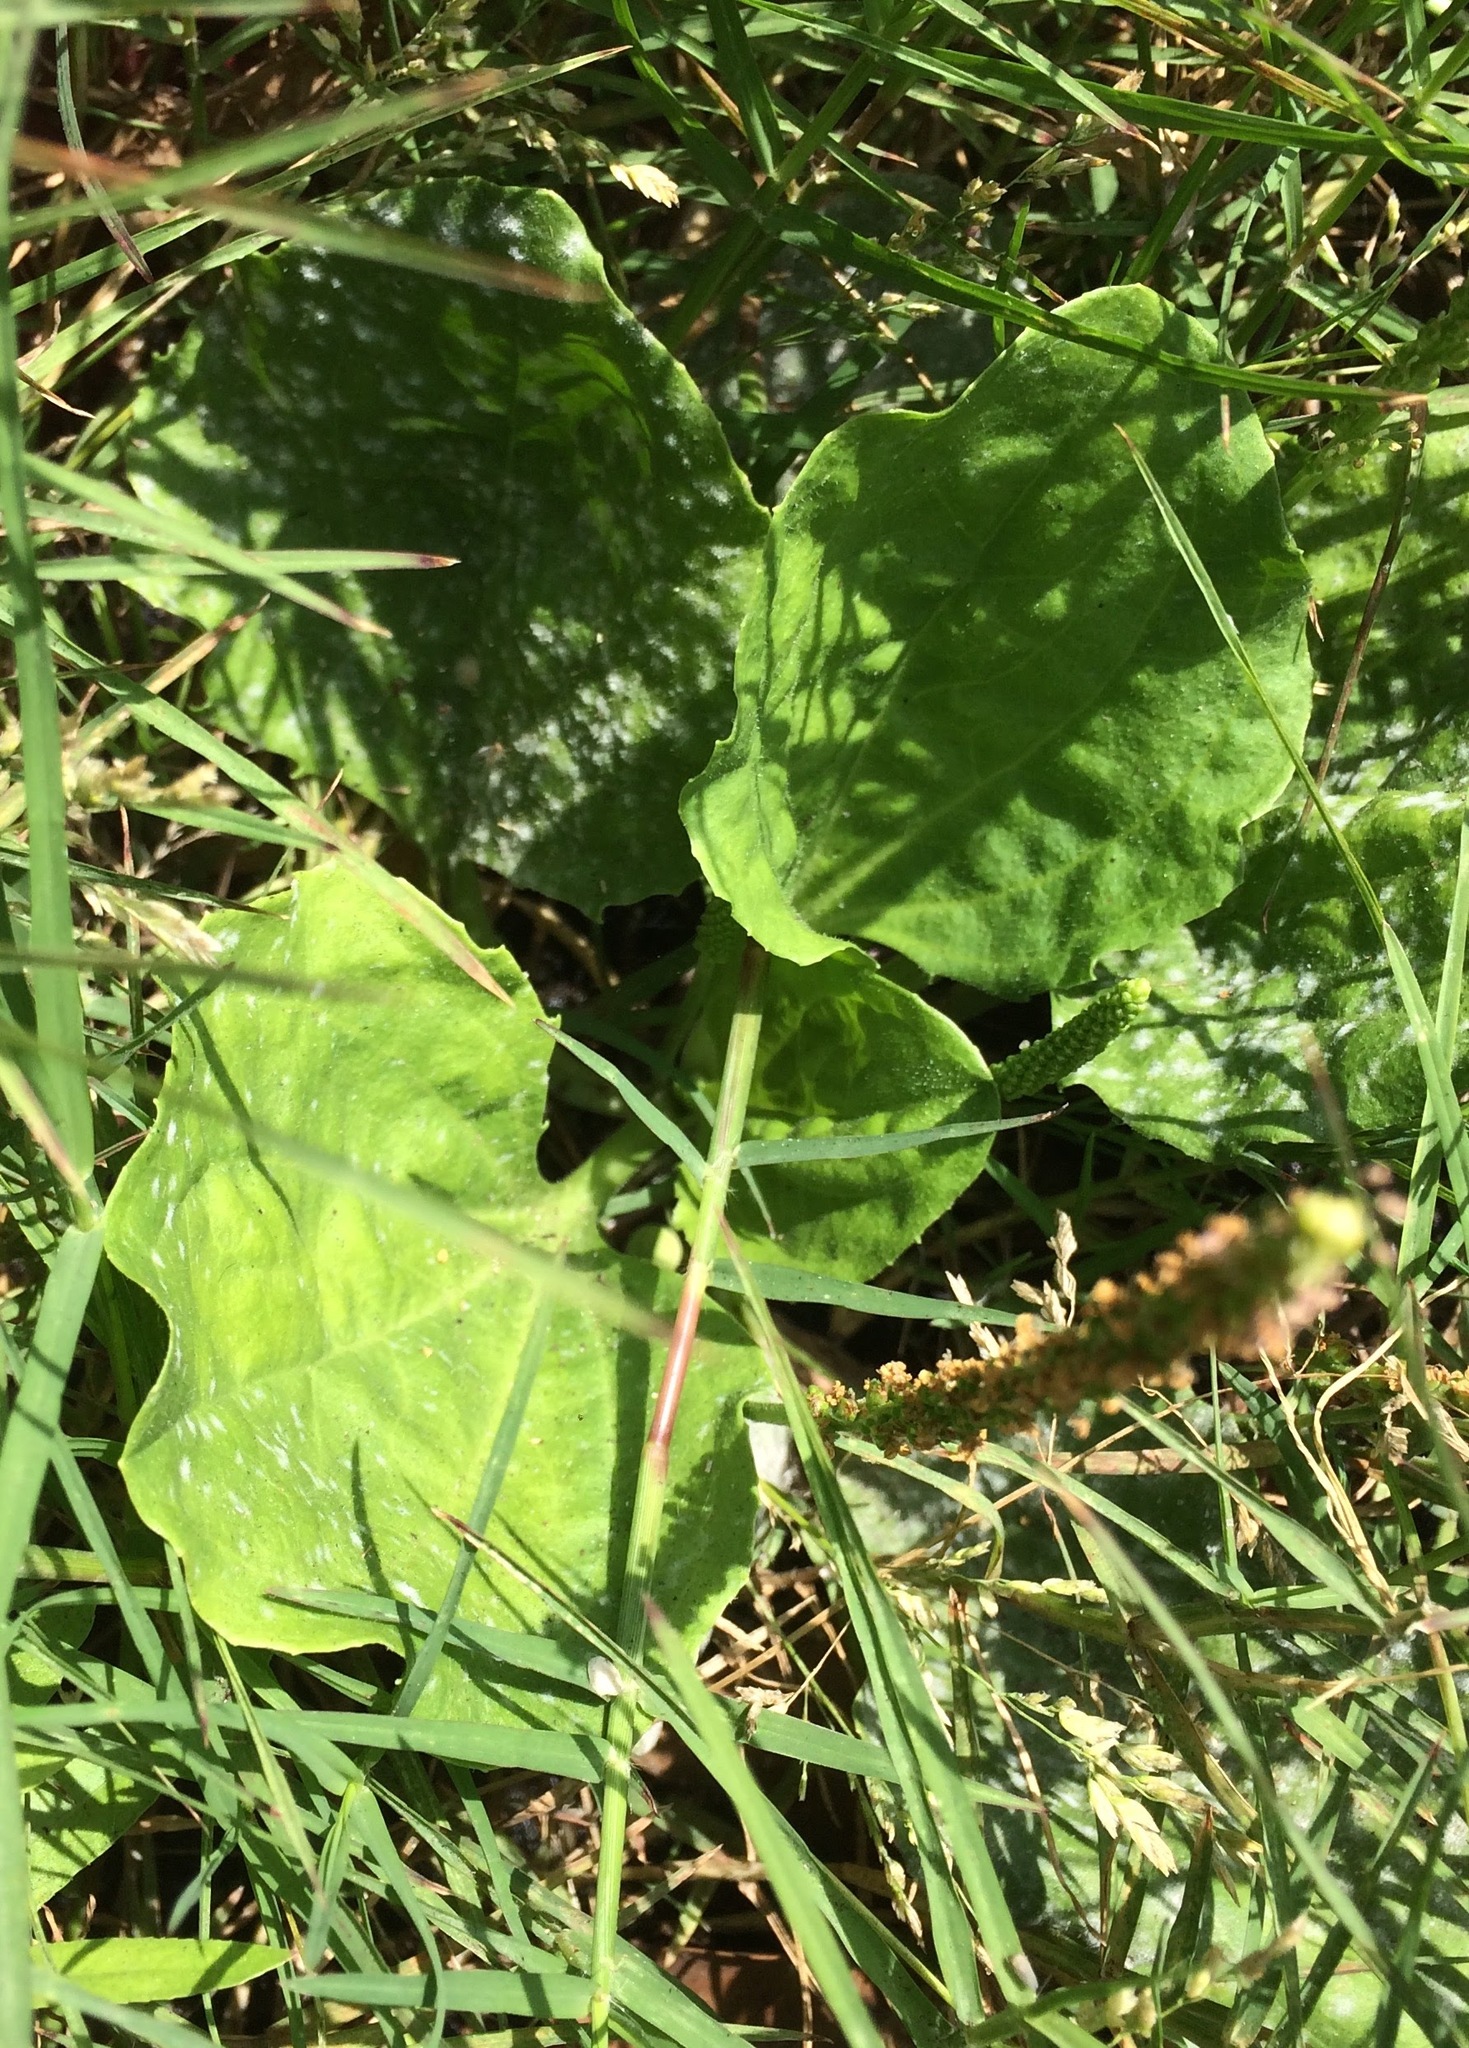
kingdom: Plantae
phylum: Tracheophyta
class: Magnoliopsida
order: Lamiales
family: Plantaginaceae
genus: Plantago
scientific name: Plantago major
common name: Common plantain
